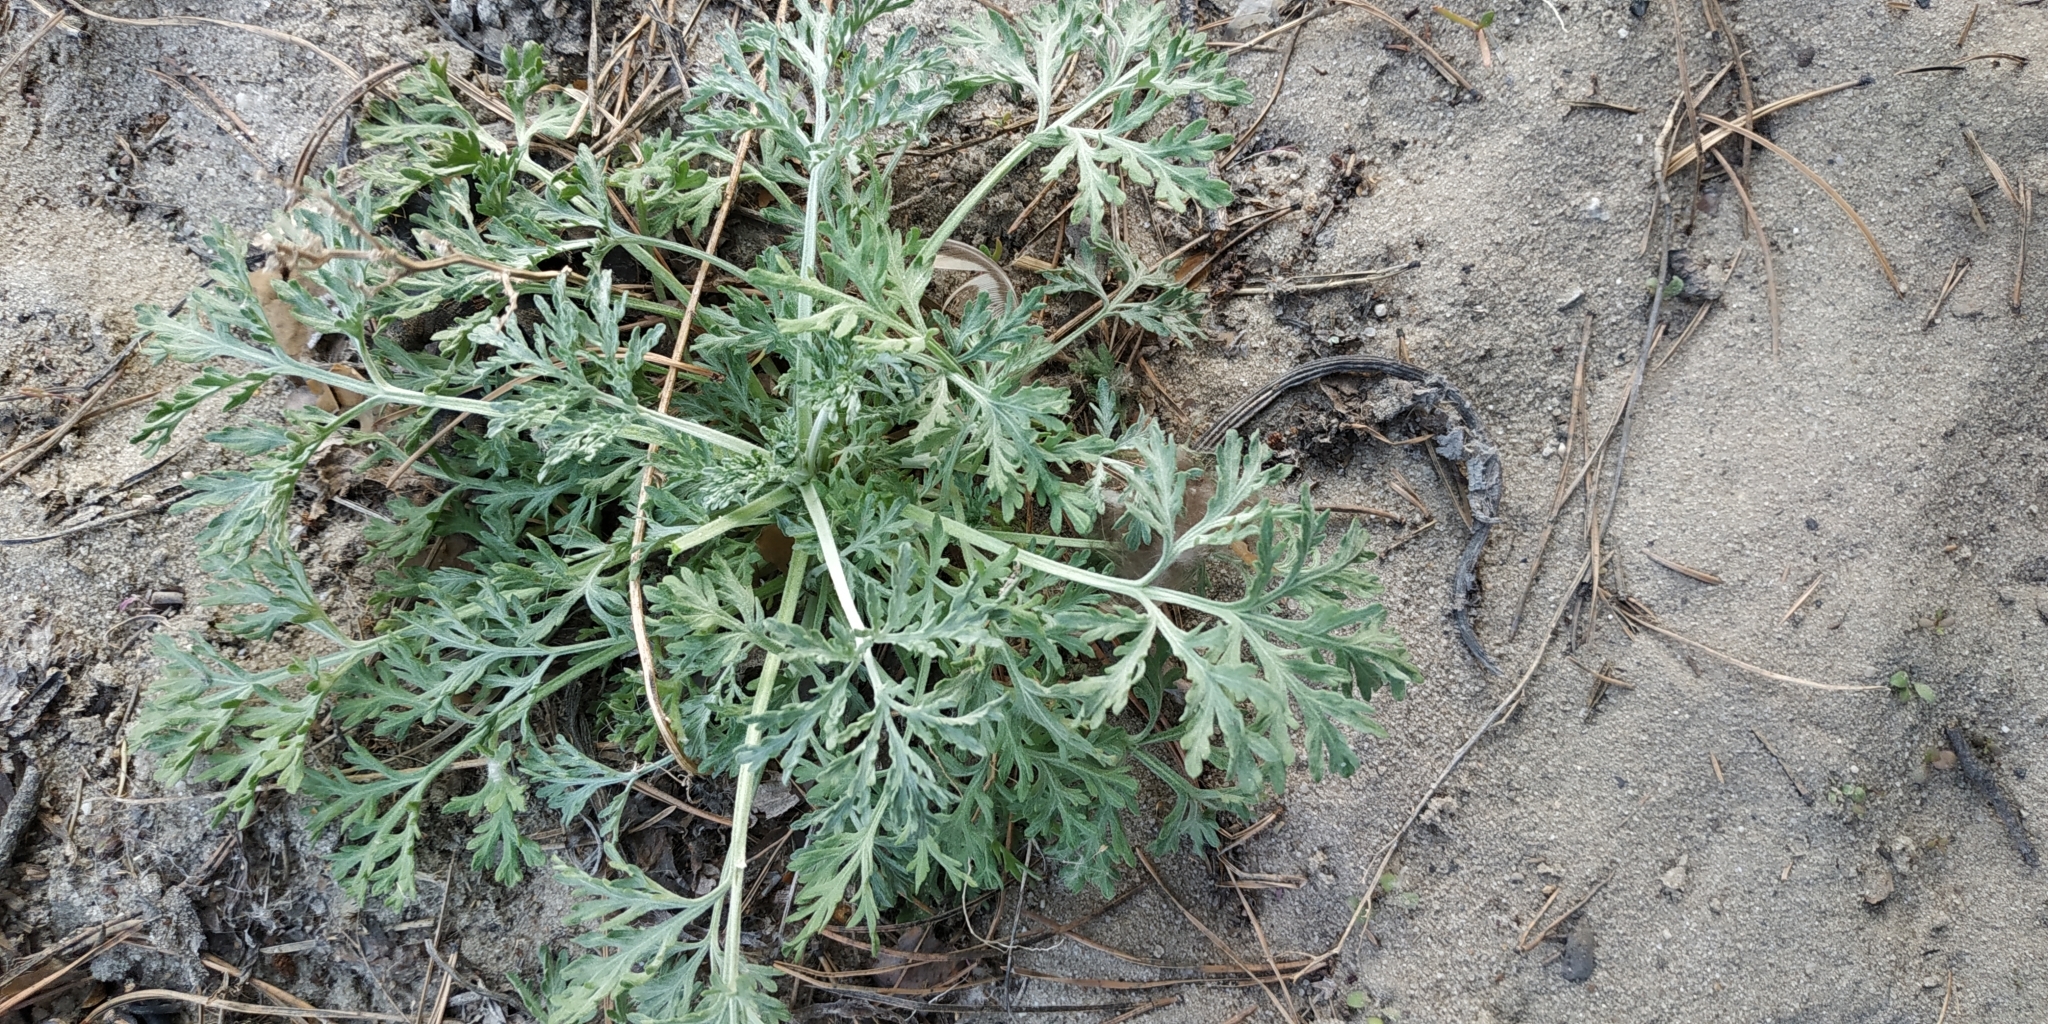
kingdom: Plantae
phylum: Tracheophyta
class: Magnoliopsida
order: Asterales
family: Asteraceae
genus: Artemisia
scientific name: Artemisia sieversiana
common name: Sieversian wormwood
